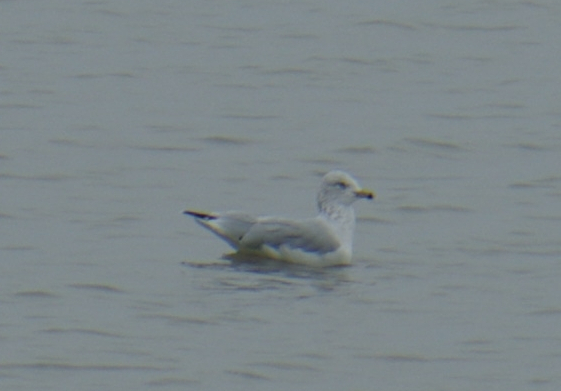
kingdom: Animalia
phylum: Chordata
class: Aves
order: Charadriiformes
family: Laridae
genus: Larus
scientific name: Larus delawarensis
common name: Ring-billed gull
